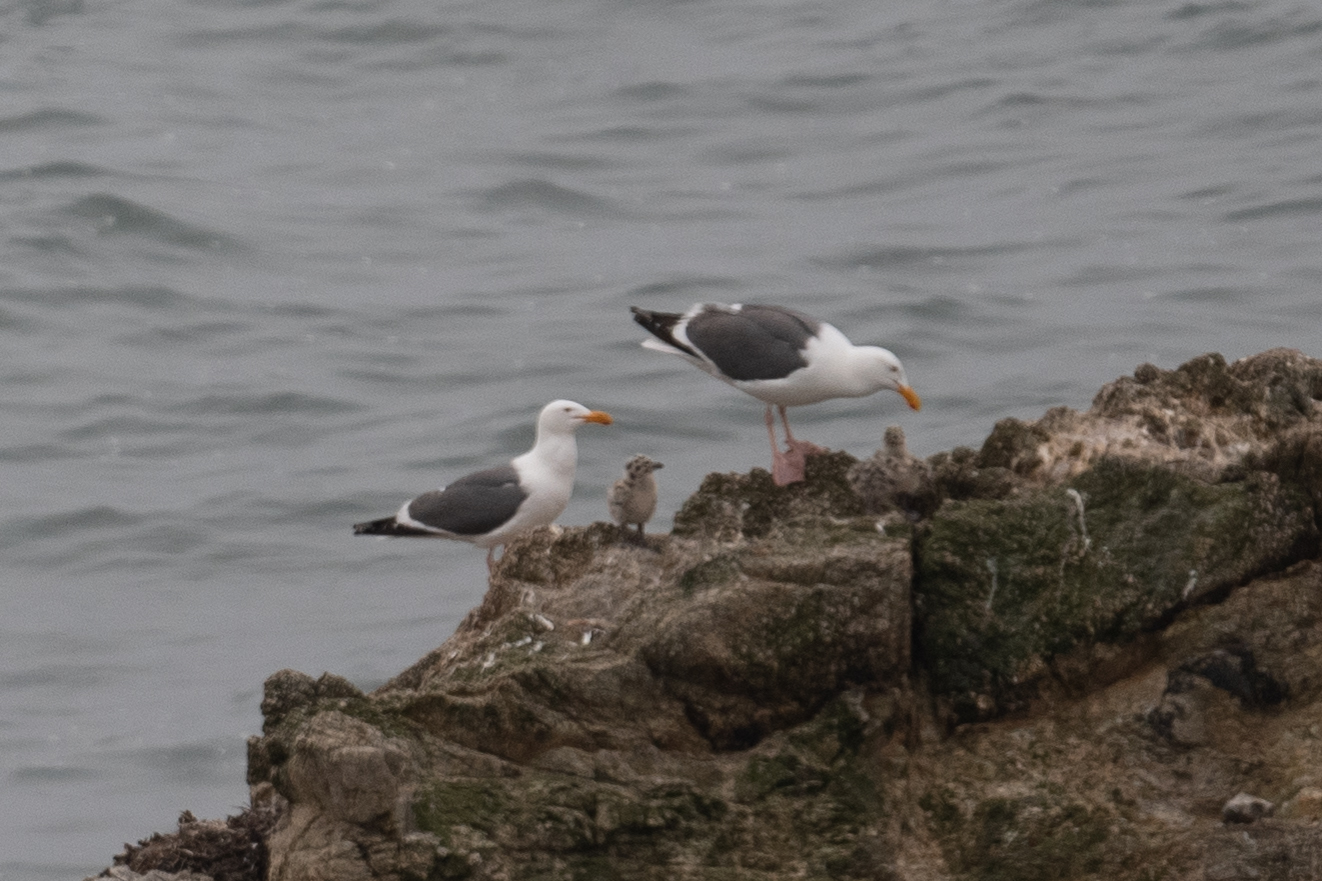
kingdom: Animalia
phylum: Chordata
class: Aves
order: Charadriiformes
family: Laridae
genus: Larus
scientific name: Larus occidentalis
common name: Western gull
